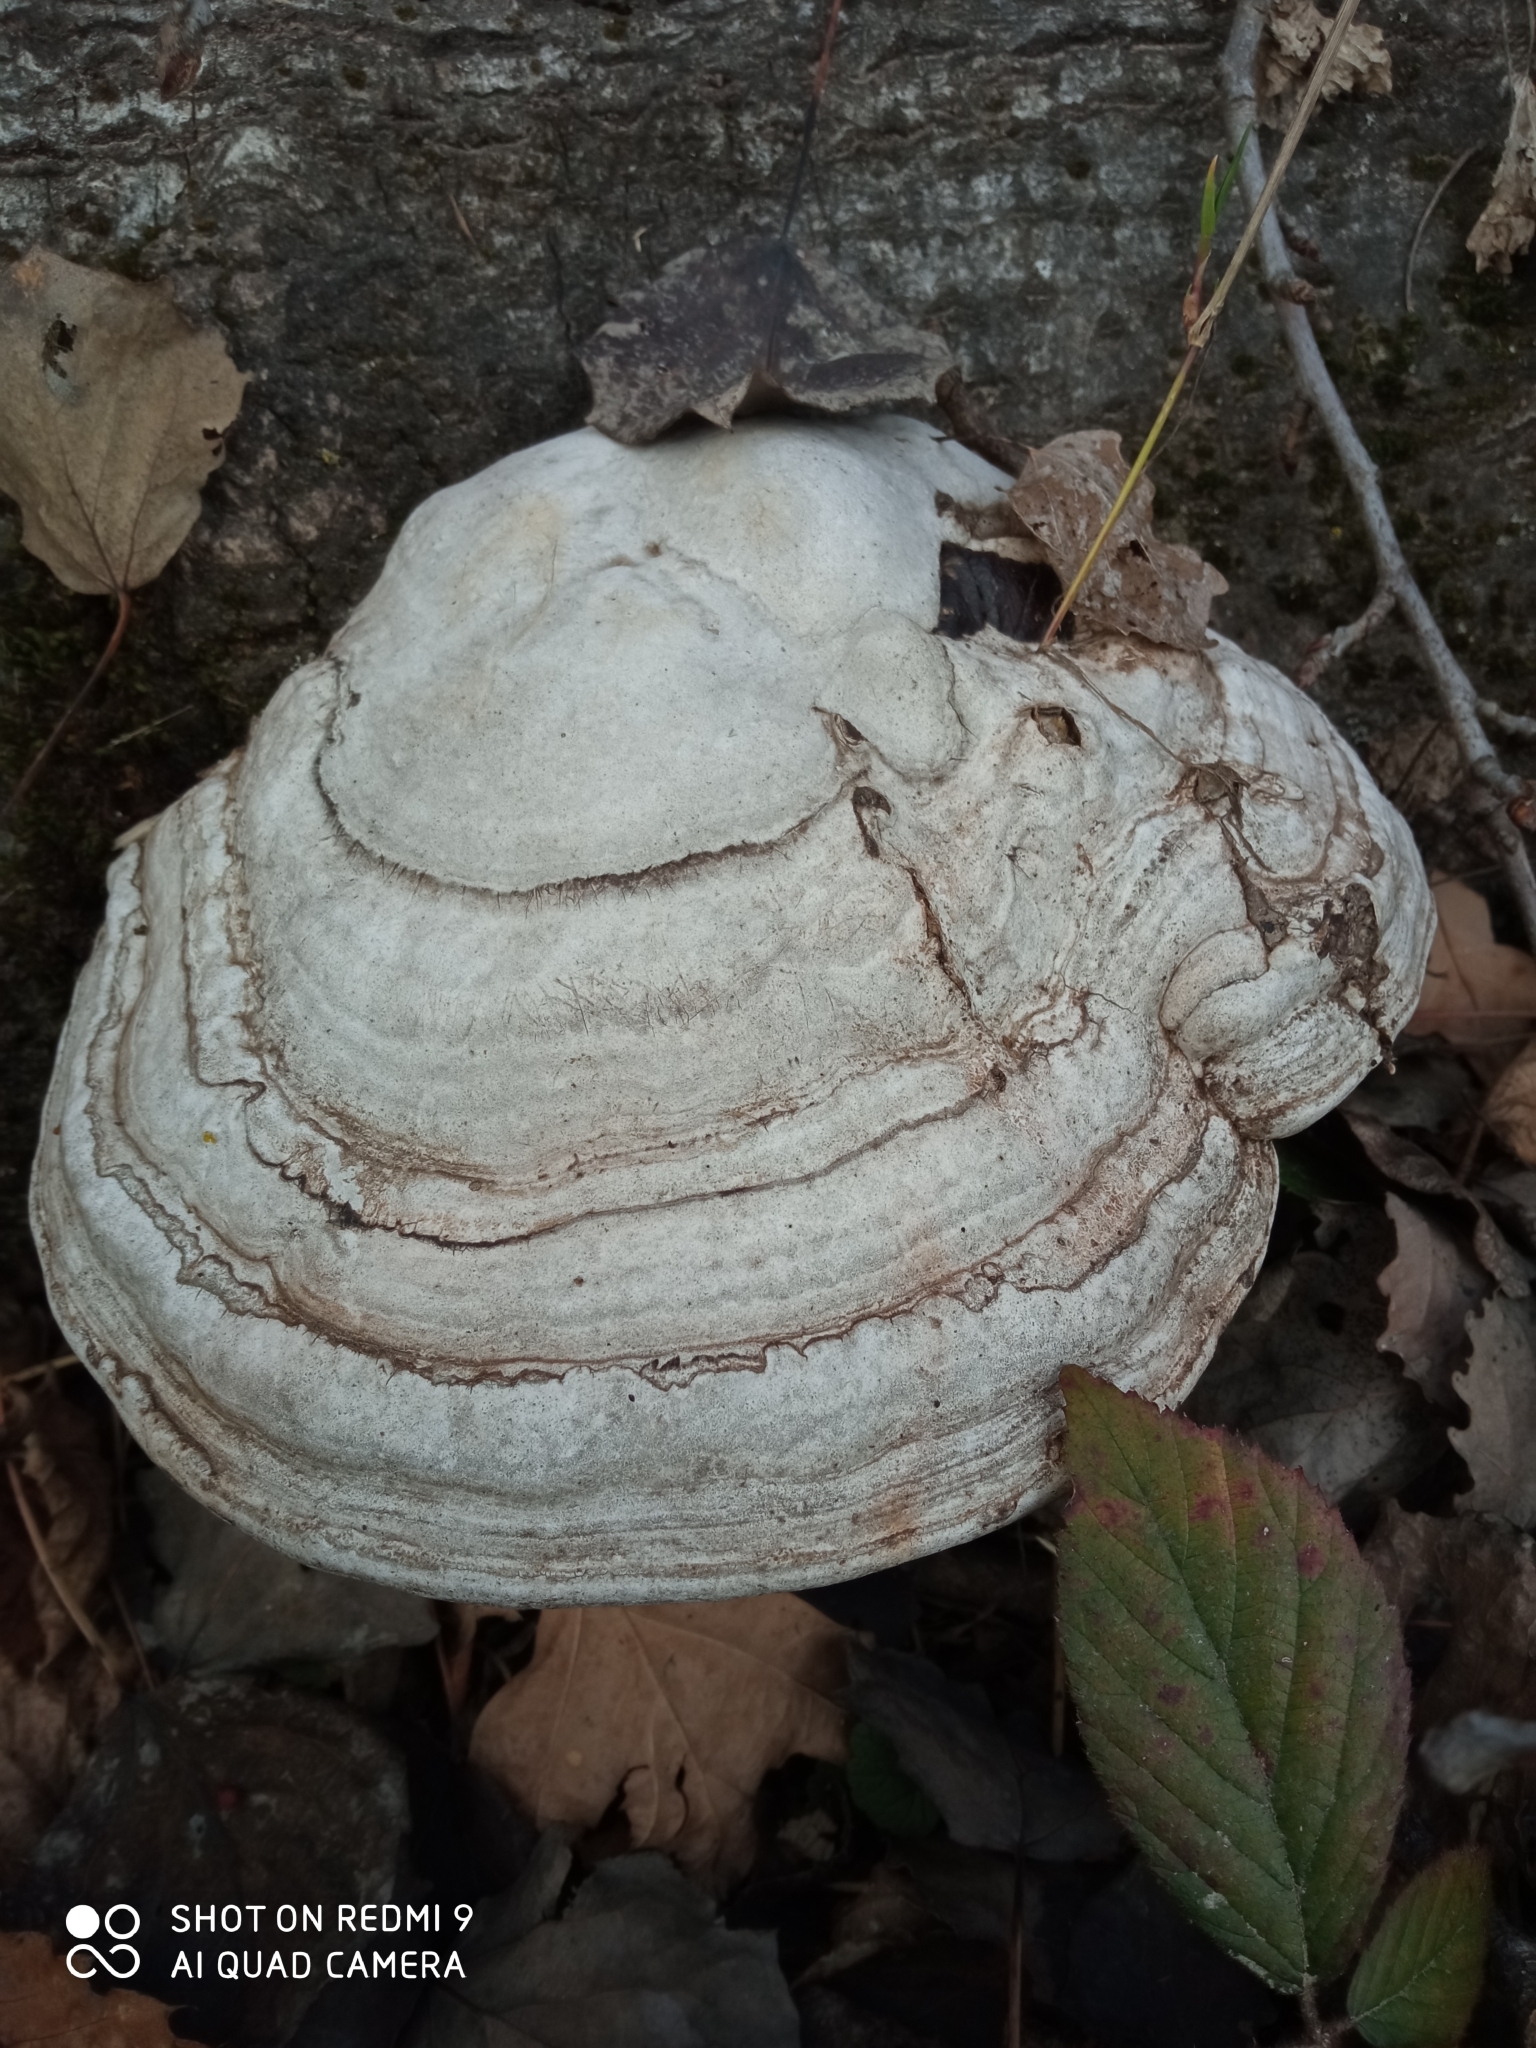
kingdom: Fungi
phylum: Basidiomycota
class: Agaricomycetes
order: Polyporales
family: Polyporaceae
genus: Fomes
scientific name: Fomes fomentarius
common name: Hoof fungus
